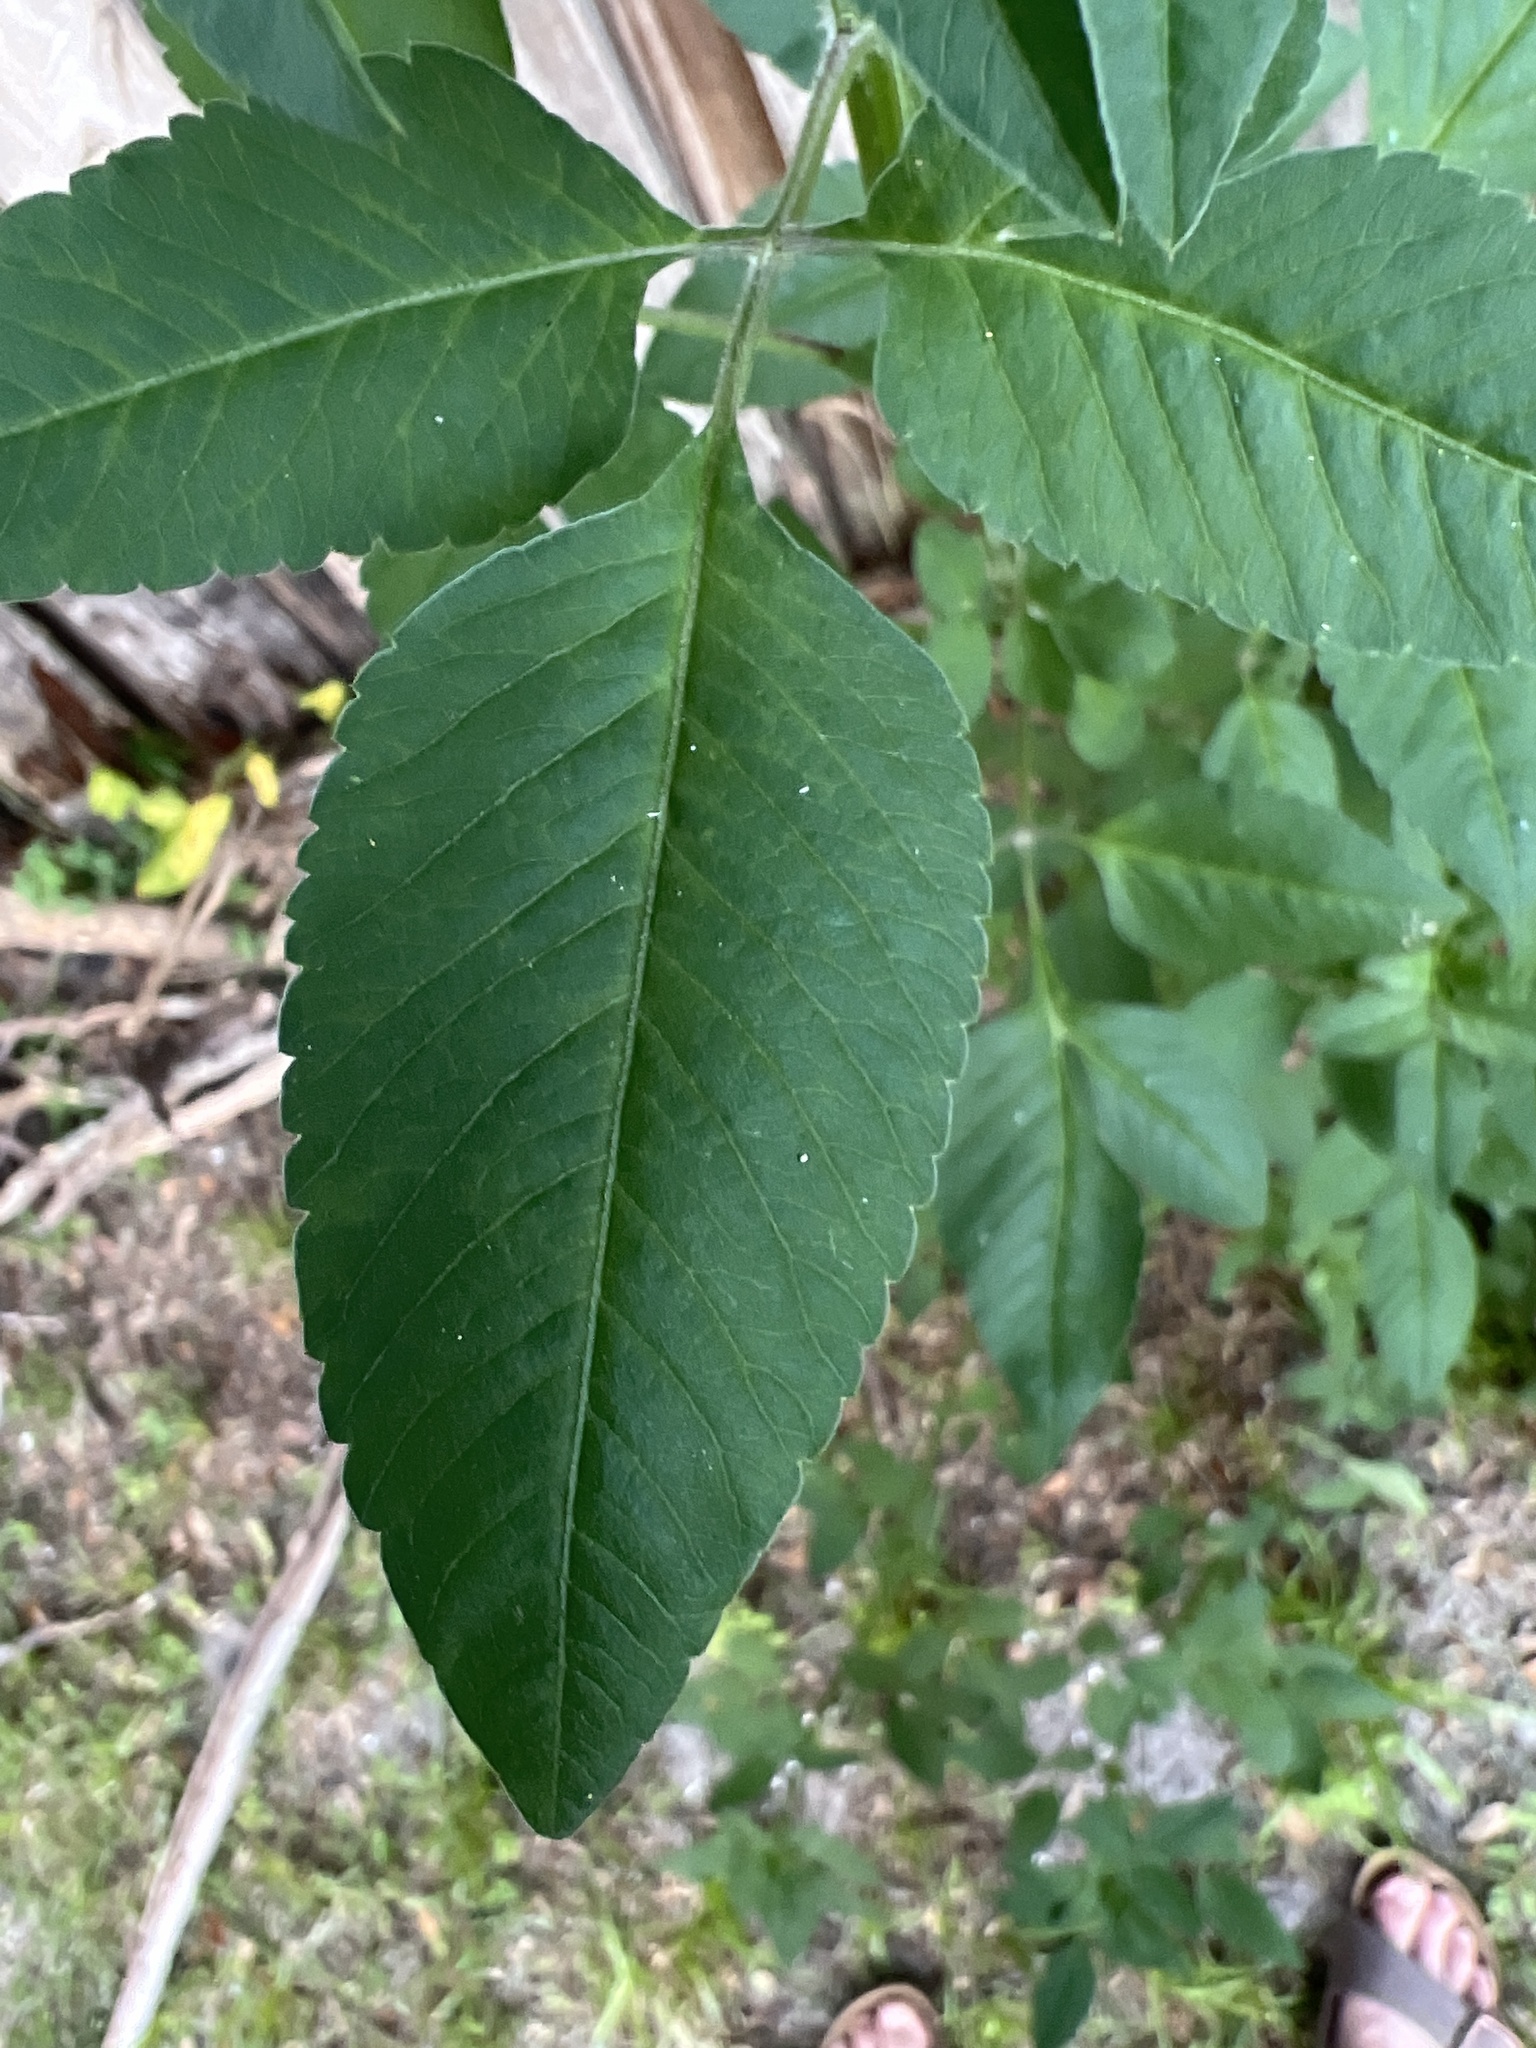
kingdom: Plantae
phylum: Tracheophyta
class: Magnoliopsida
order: Asterales
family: Asteraceae
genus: Bidens
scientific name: Bidens alba
